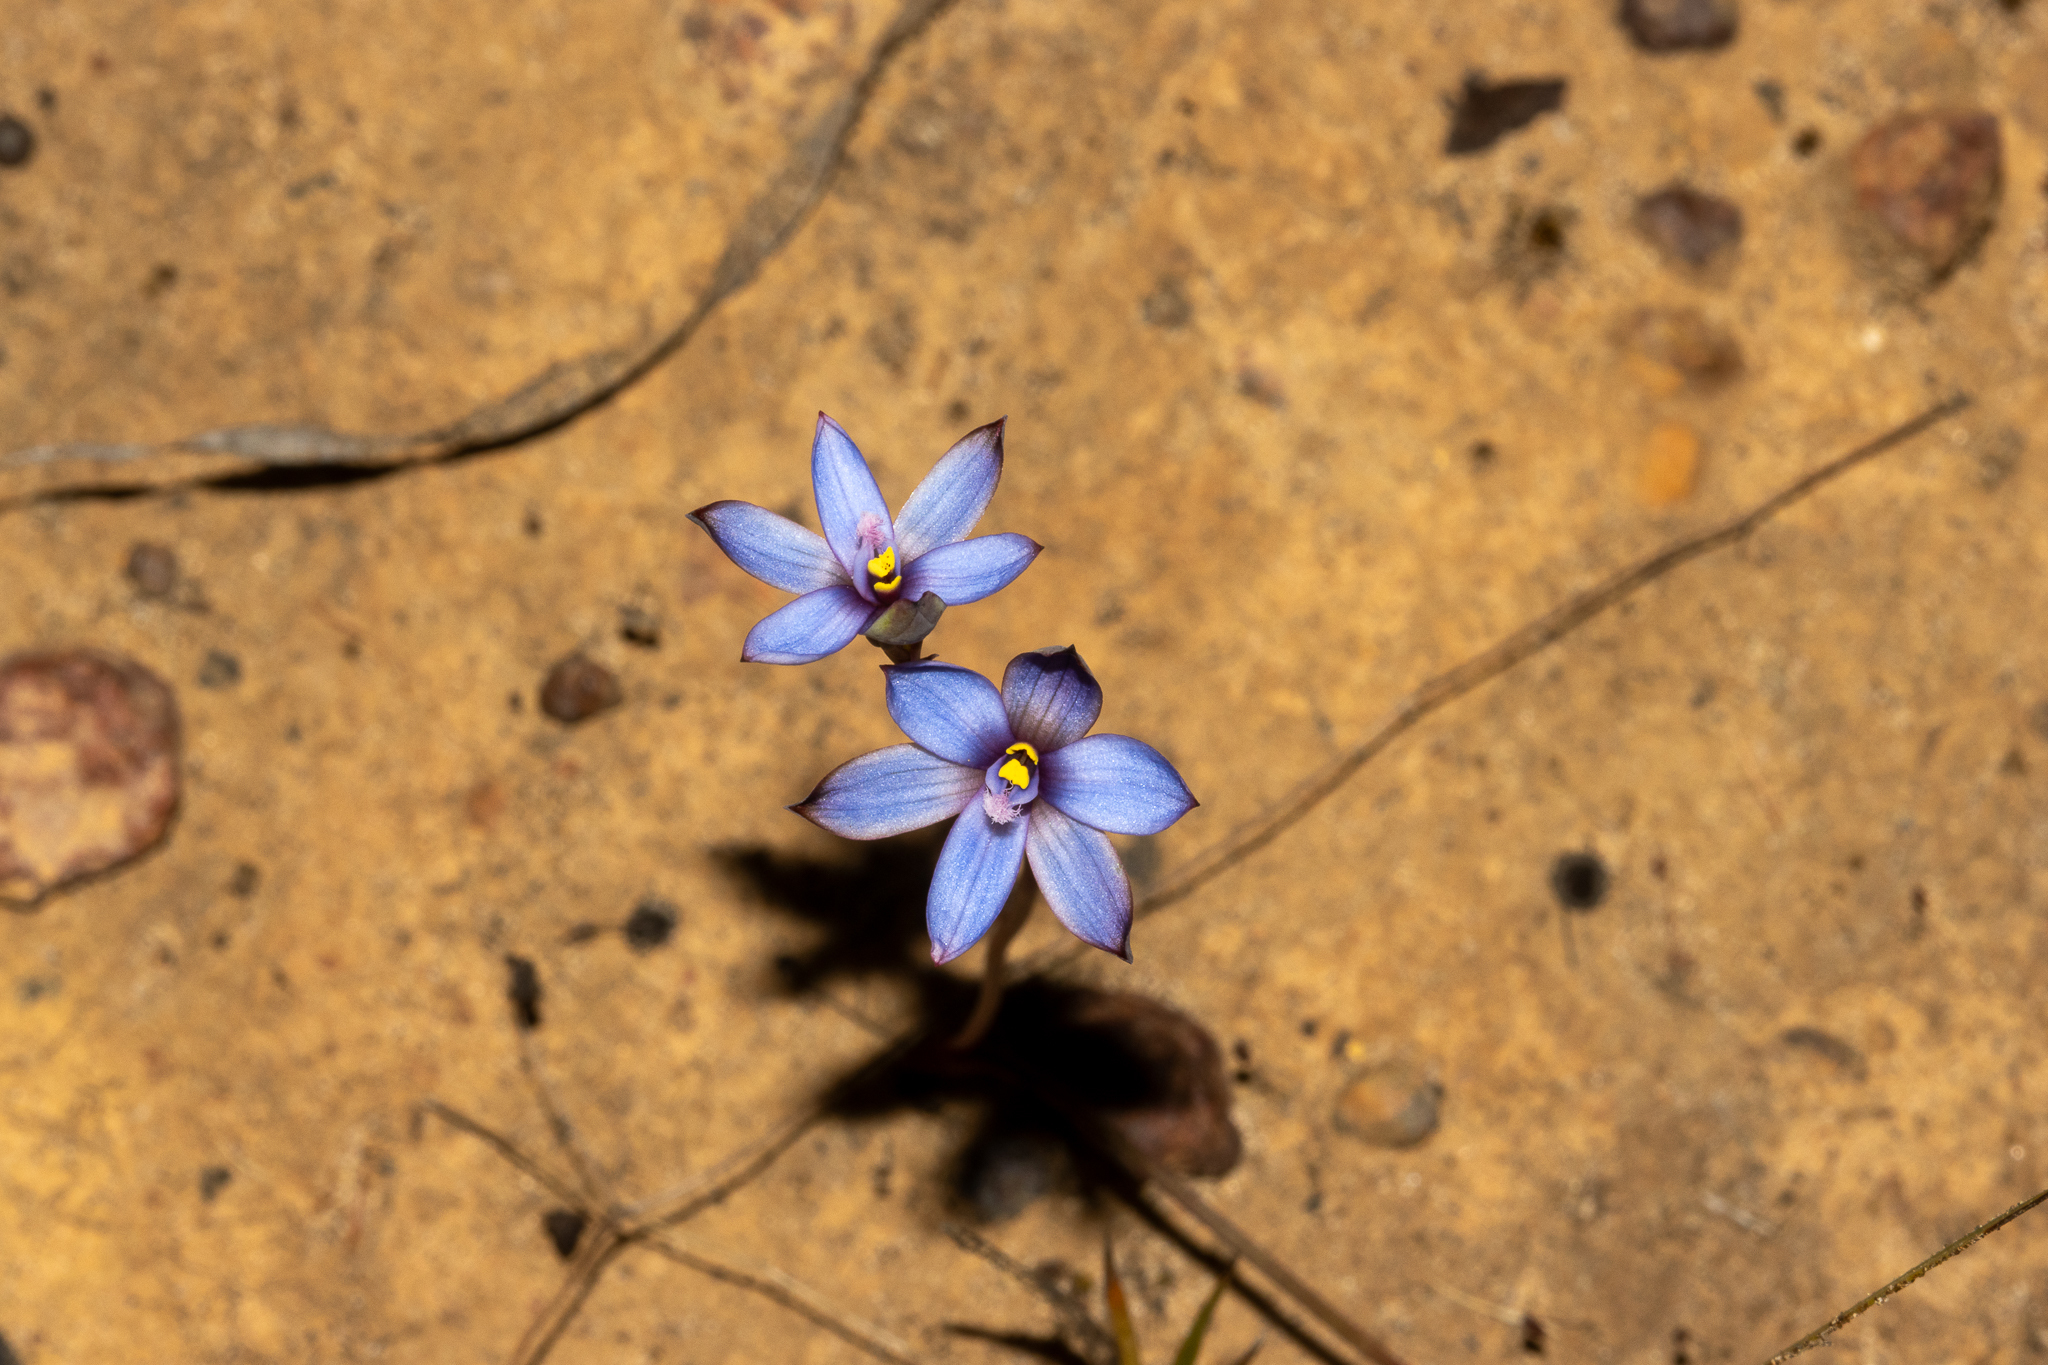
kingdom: Plantae
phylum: Tracheophyta
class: Liliopsida
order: Asparagales
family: Orchidaceae
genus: Thelymitra
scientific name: Thelymitra azurea
